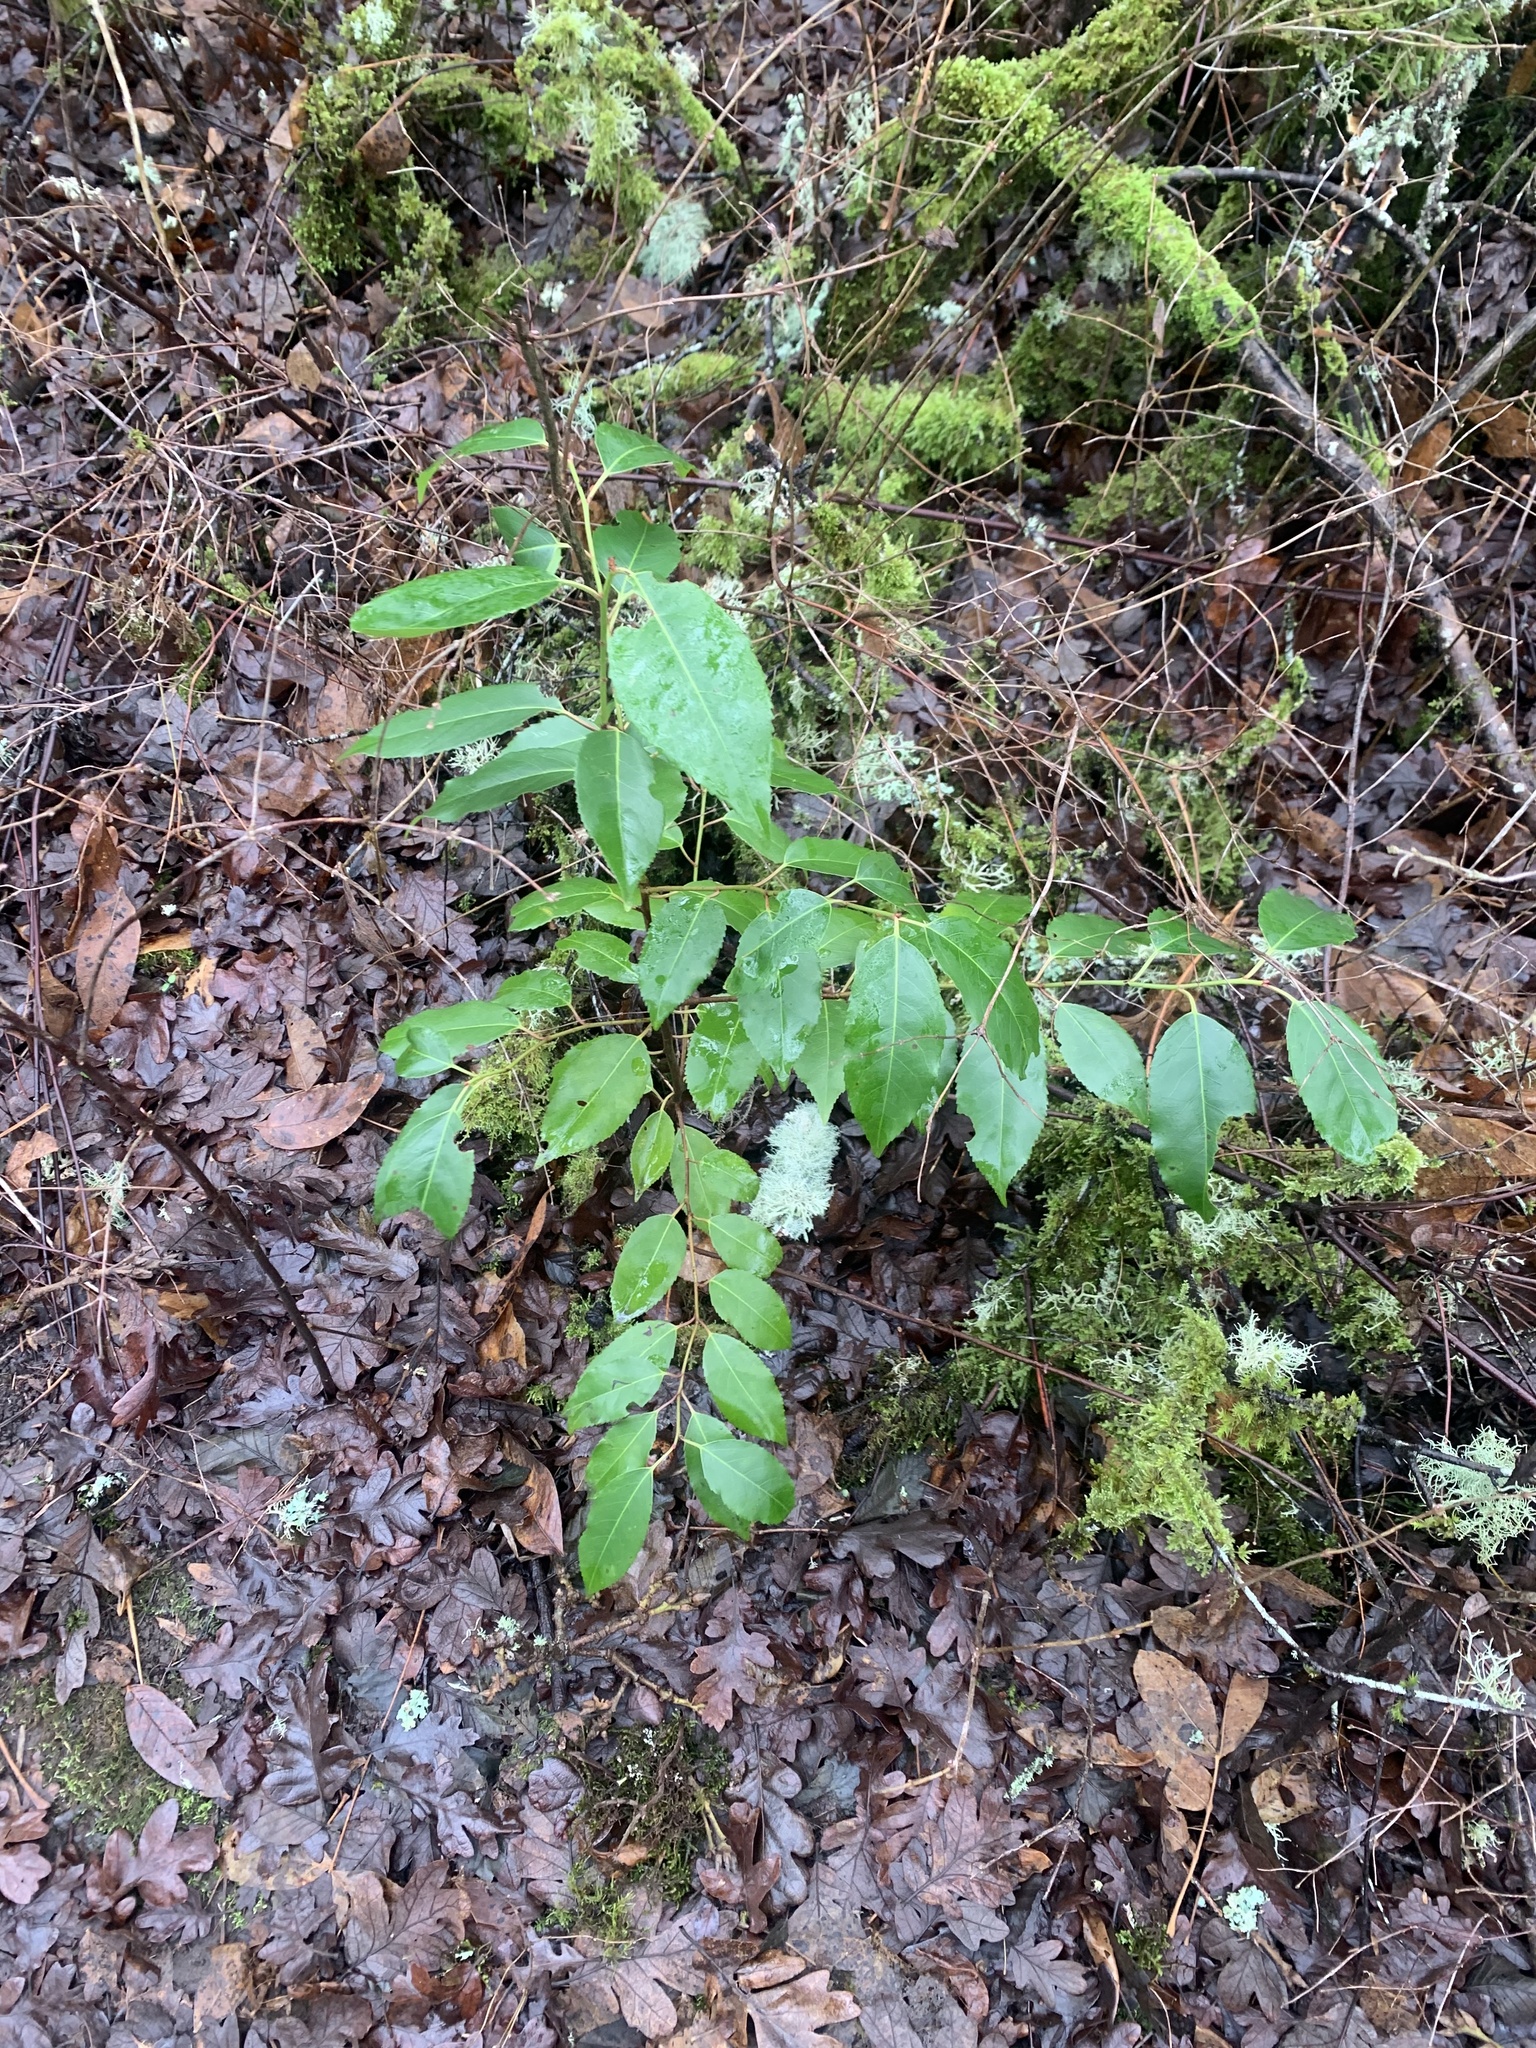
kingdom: Plantae
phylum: Tracheophyta
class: Magnoliopsida
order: Rosales
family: Rosaceae
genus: Prunus
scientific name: Prunus lusitanica
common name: Portugal laurel
